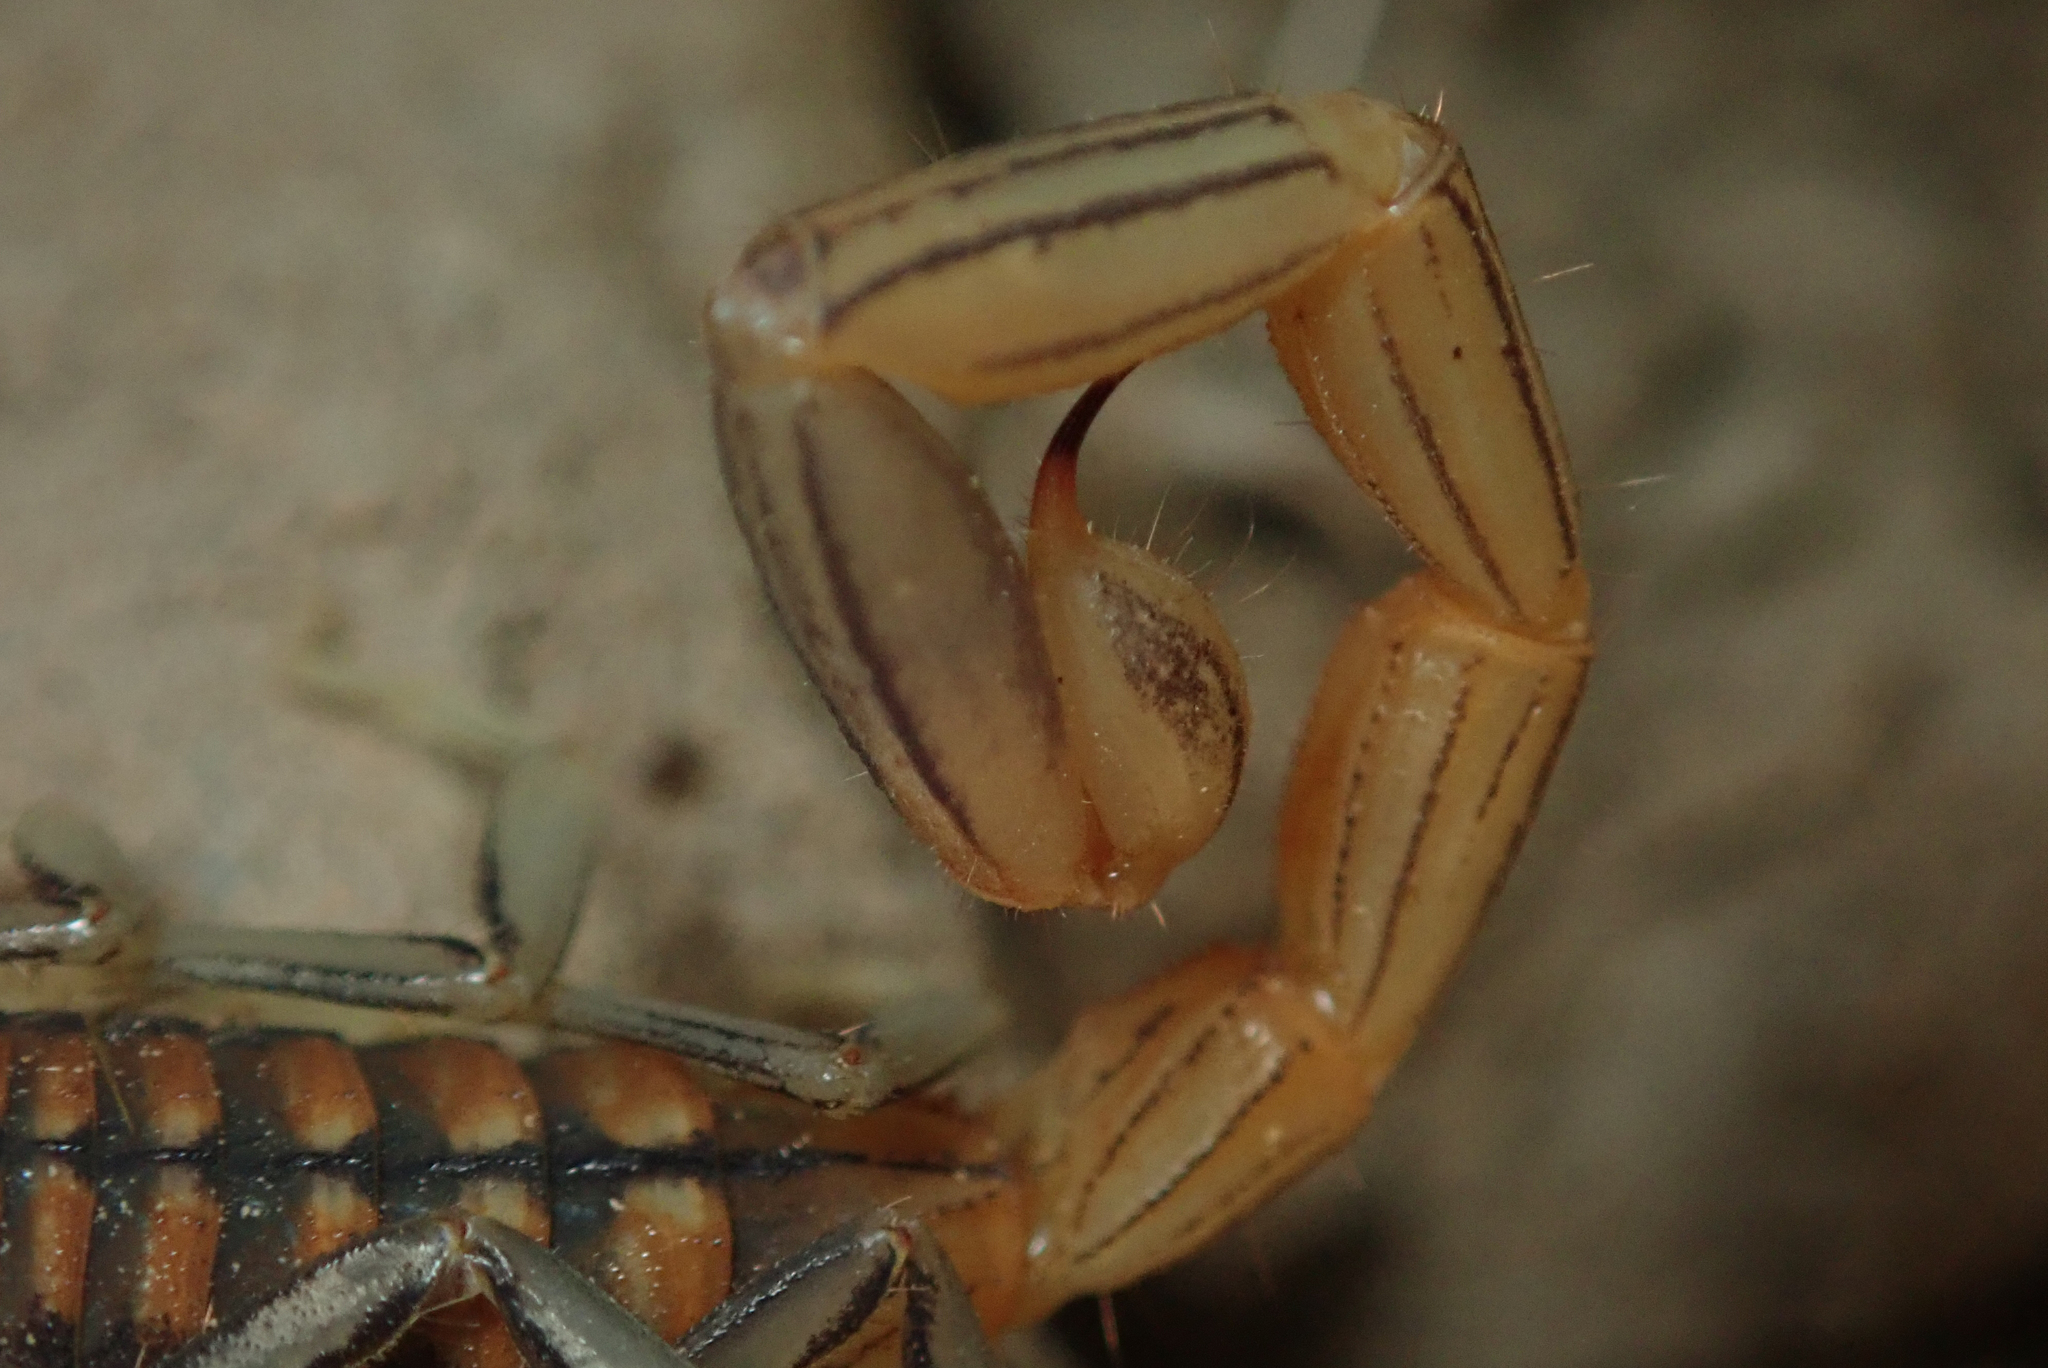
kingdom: Animalia
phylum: Arthropoda
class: Arachnida
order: Scorpiones
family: Buthidae
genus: Uroplectes
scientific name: Uroplectes planimanus
